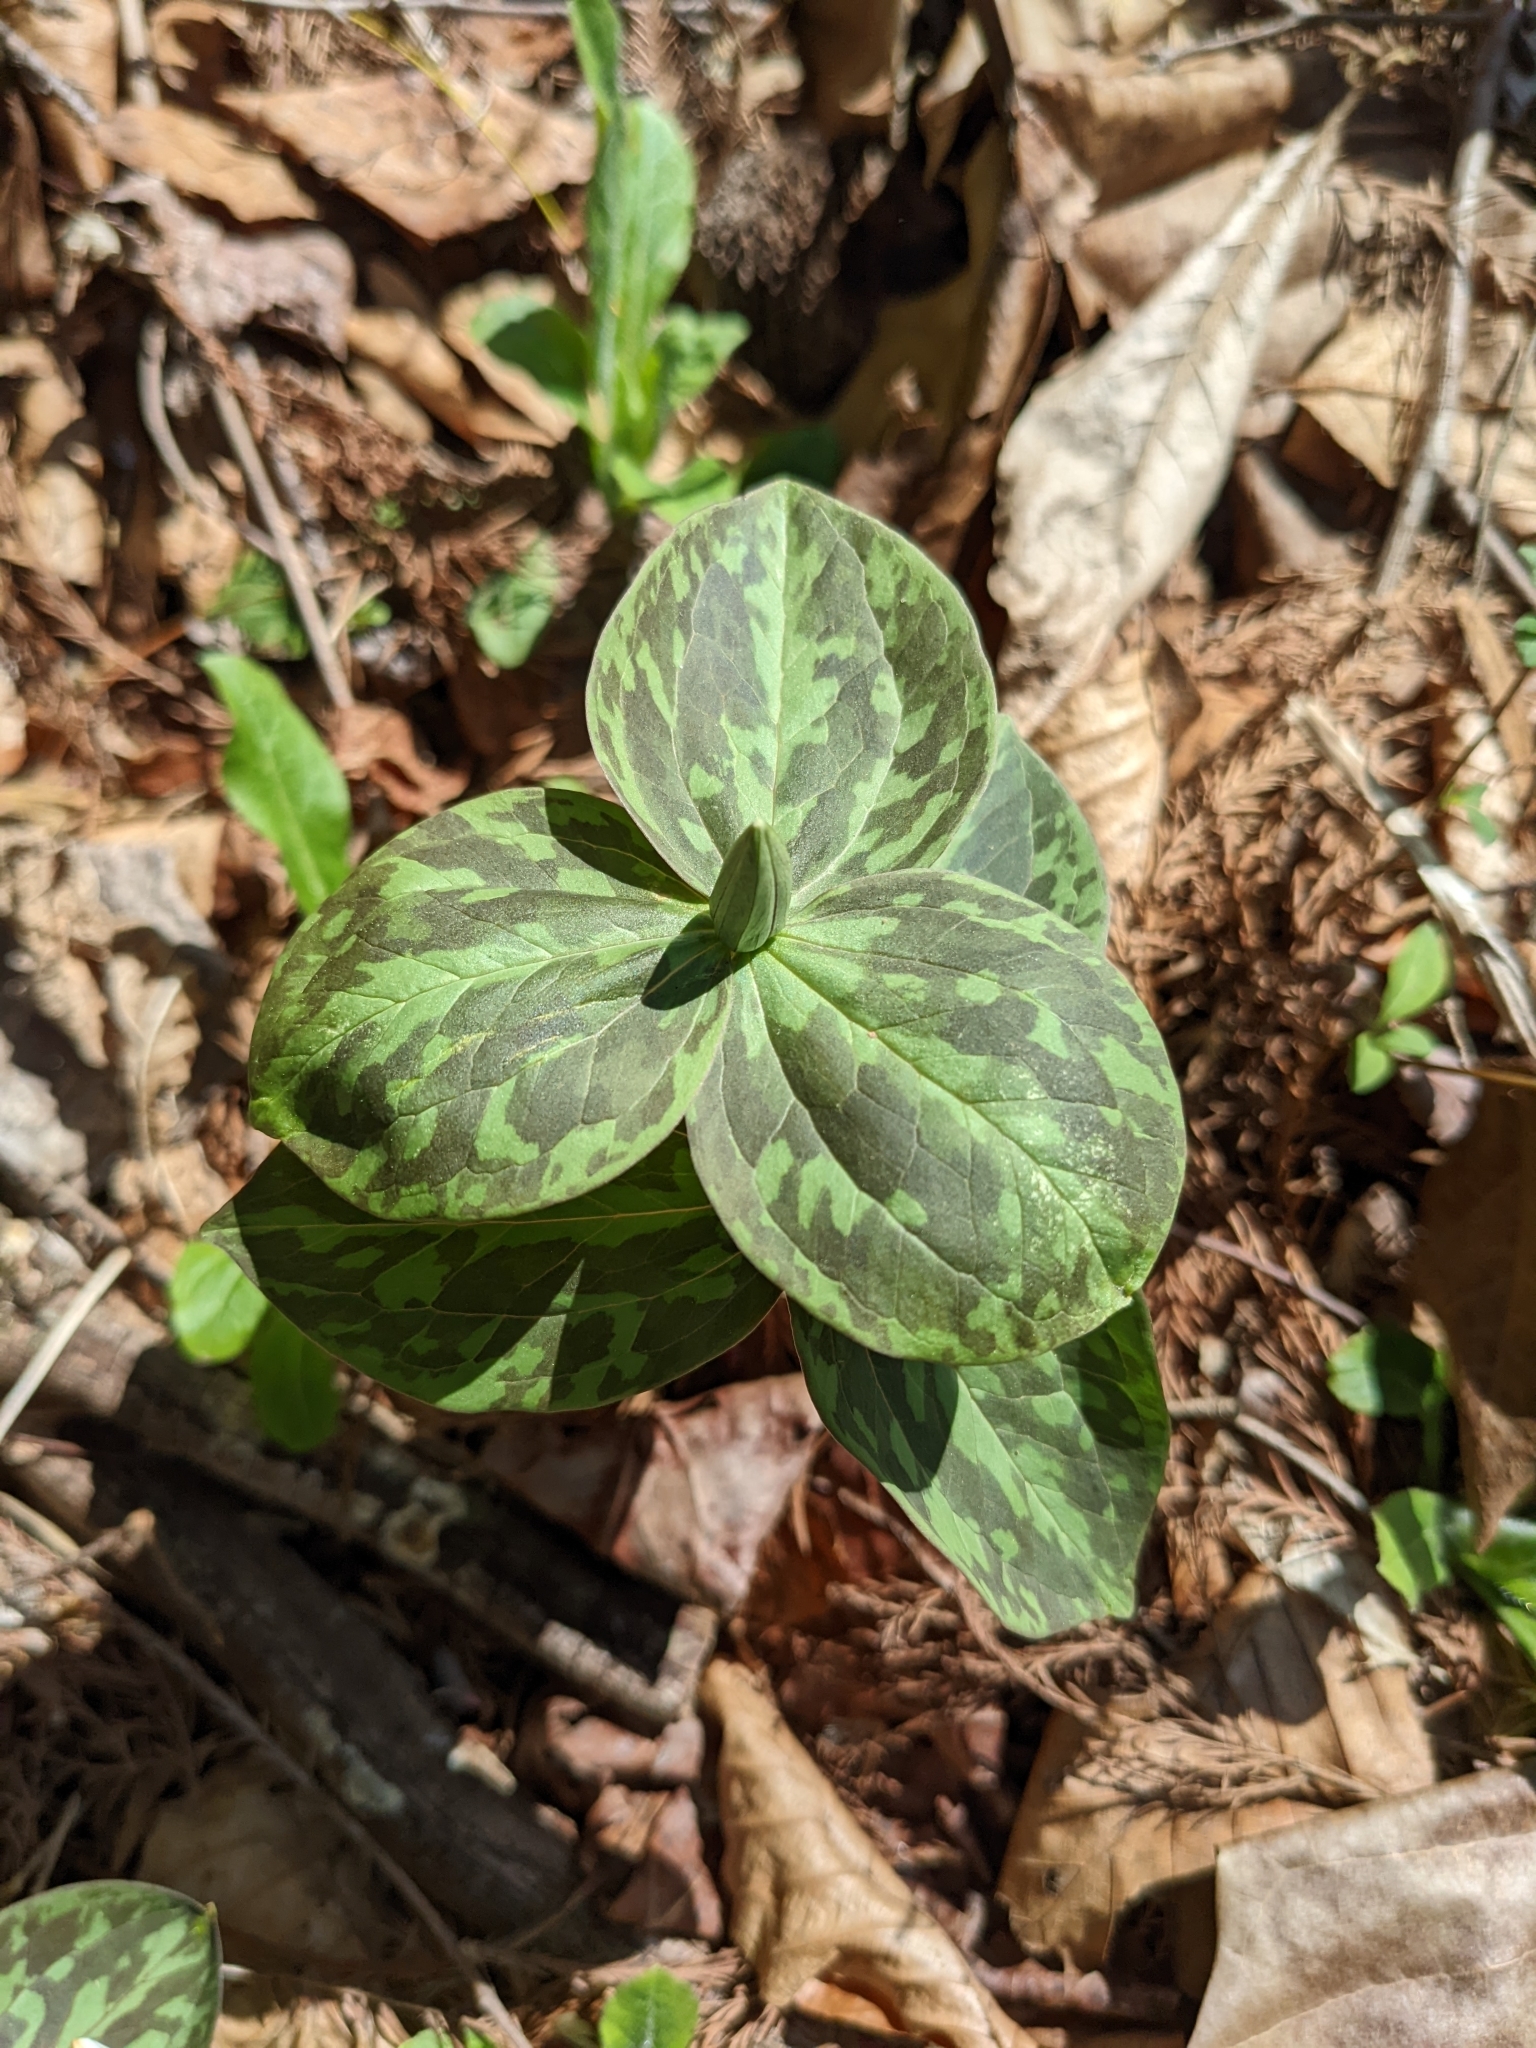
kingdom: Plantae
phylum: Tracheophyta
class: Liliopsida
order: Liliales
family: Melanthiaceae
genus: Trillium
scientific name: Trillium sessile
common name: Sessile trillium
